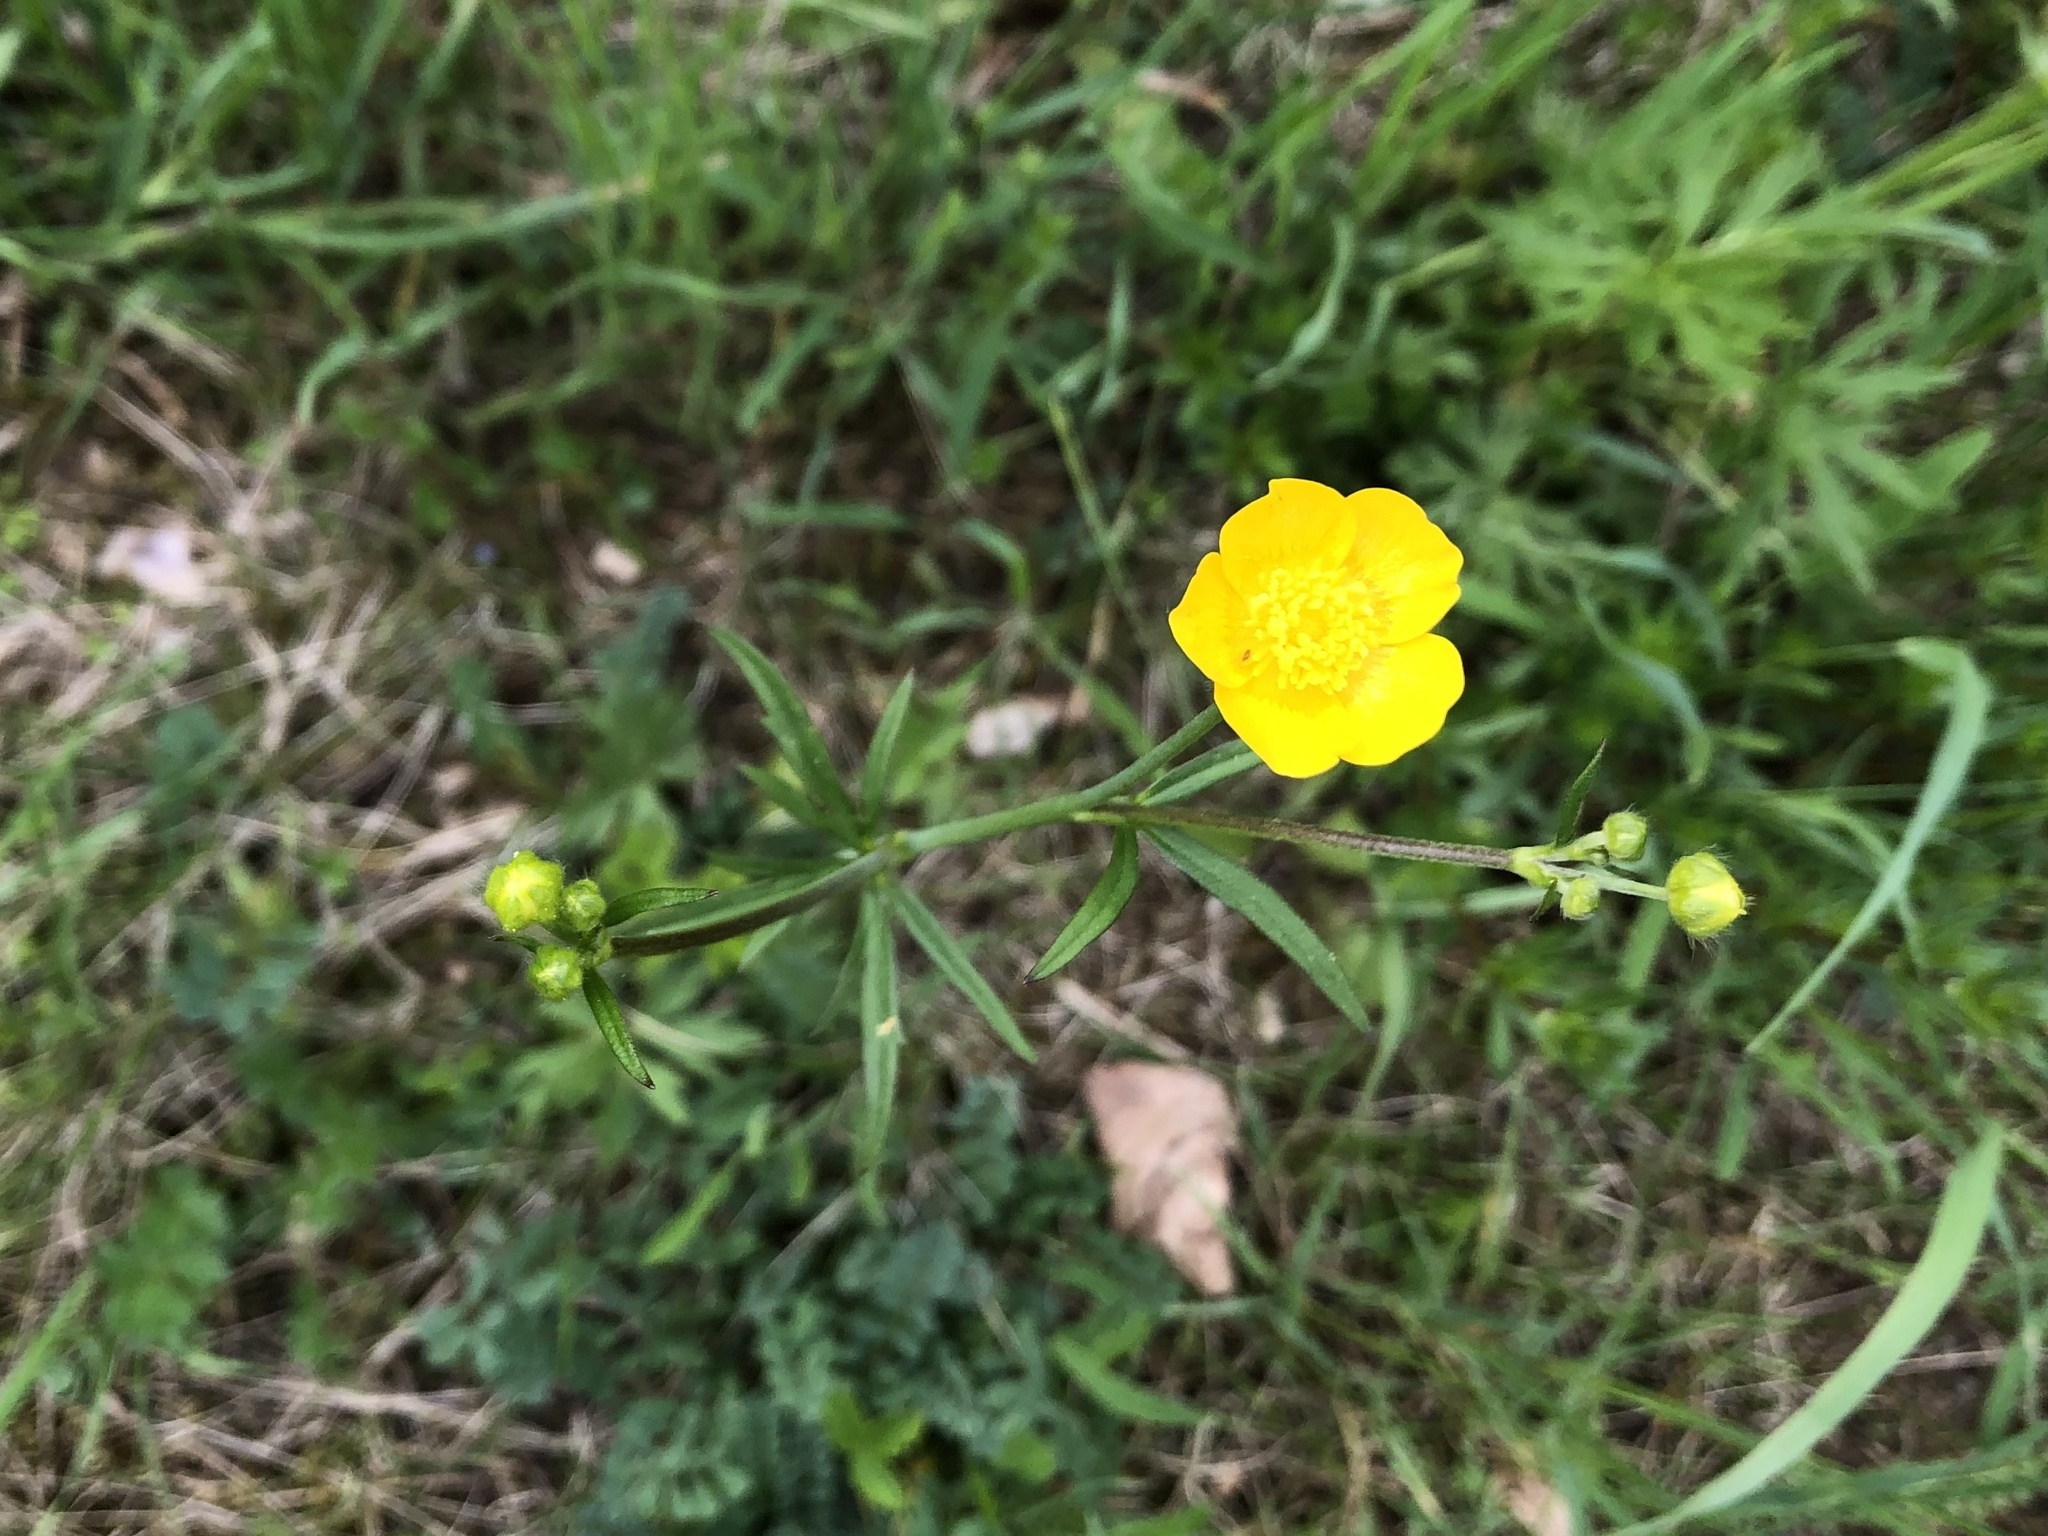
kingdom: Plantae
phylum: Tracheophyta
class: Magnoliopsida
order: Ranunculales
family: Ranunculaceae
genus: Ranunculus
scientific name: Ranunculus acris
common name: Meadow buttercup
